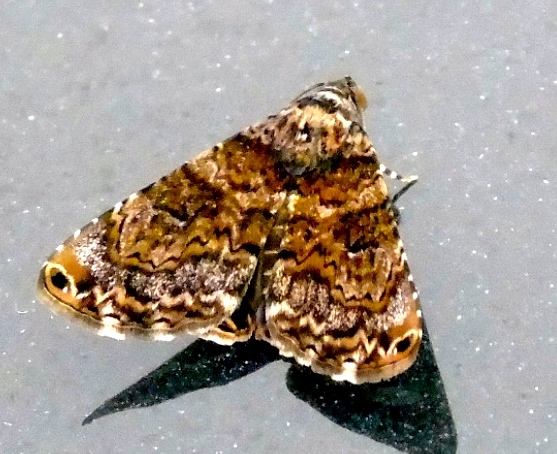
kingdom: Animalia
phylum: Arthropoda
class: Insecta
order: Lepidoptera
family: Erebidae
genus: Acolasis
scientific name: Acolasis bibitrix
